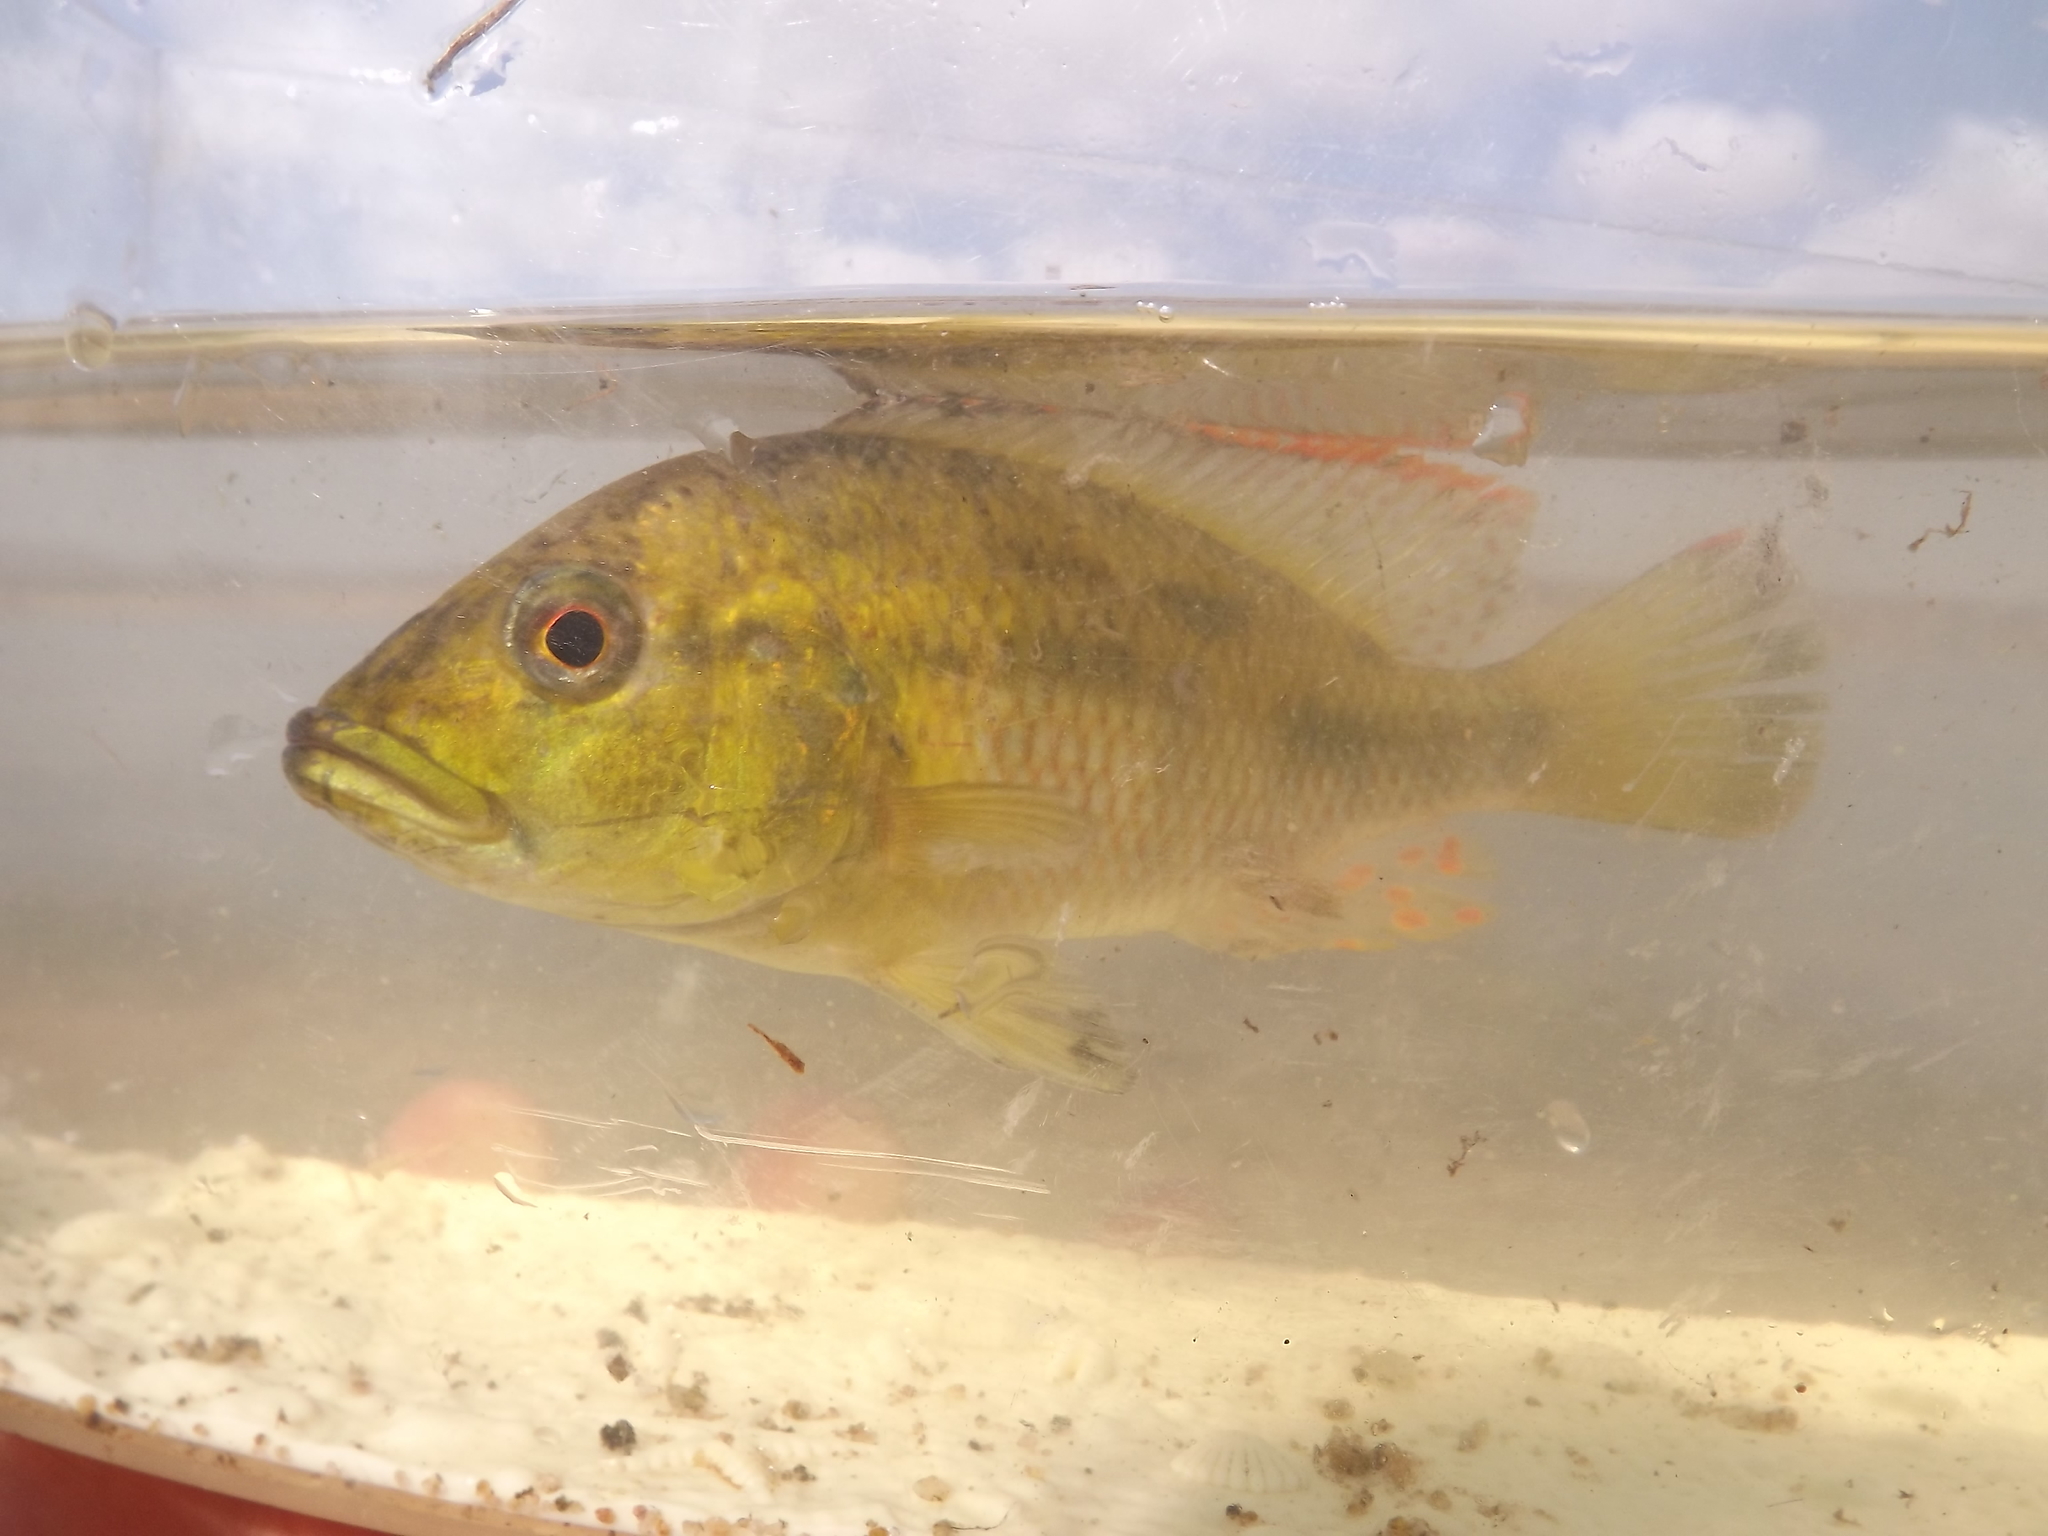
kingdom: Animalia
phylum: Chordata
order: Perciformes
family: Cichlidae
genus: Chetia
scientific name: Chetia brevis
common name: Orange-fringed largemouth
